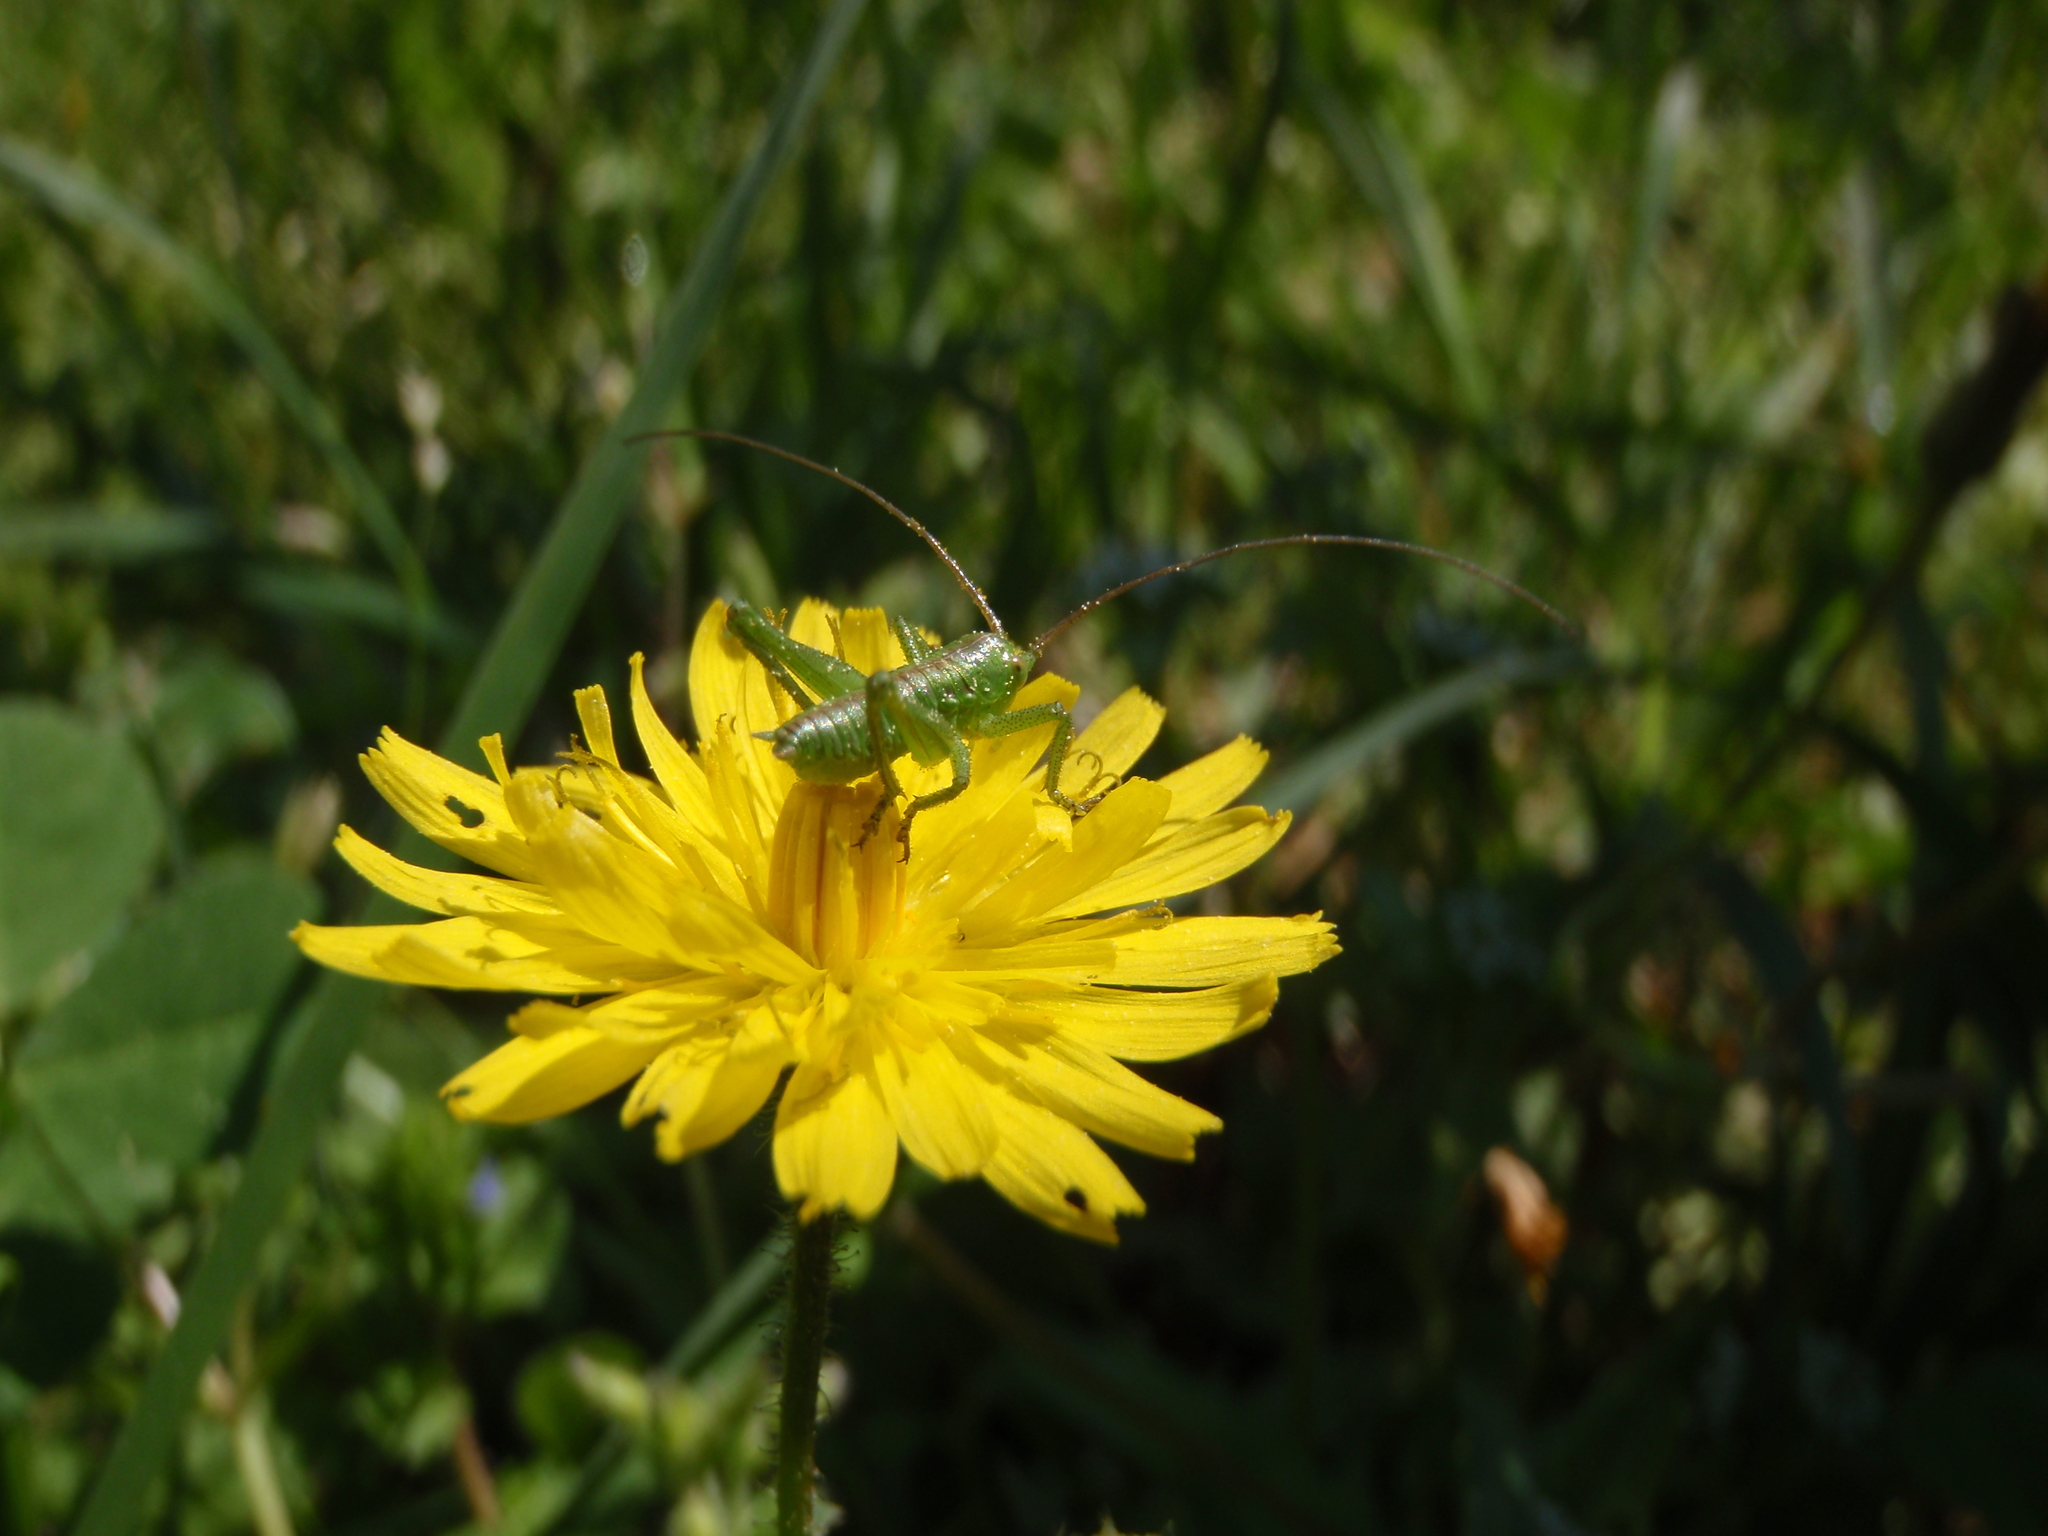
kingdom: Animalia
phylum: Arthropoda
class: Insecta
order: Orthoptera
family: Tettigoniidae
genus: Tettigonia
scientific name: Tettigonia viridissima
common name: Great green bush-cricket
